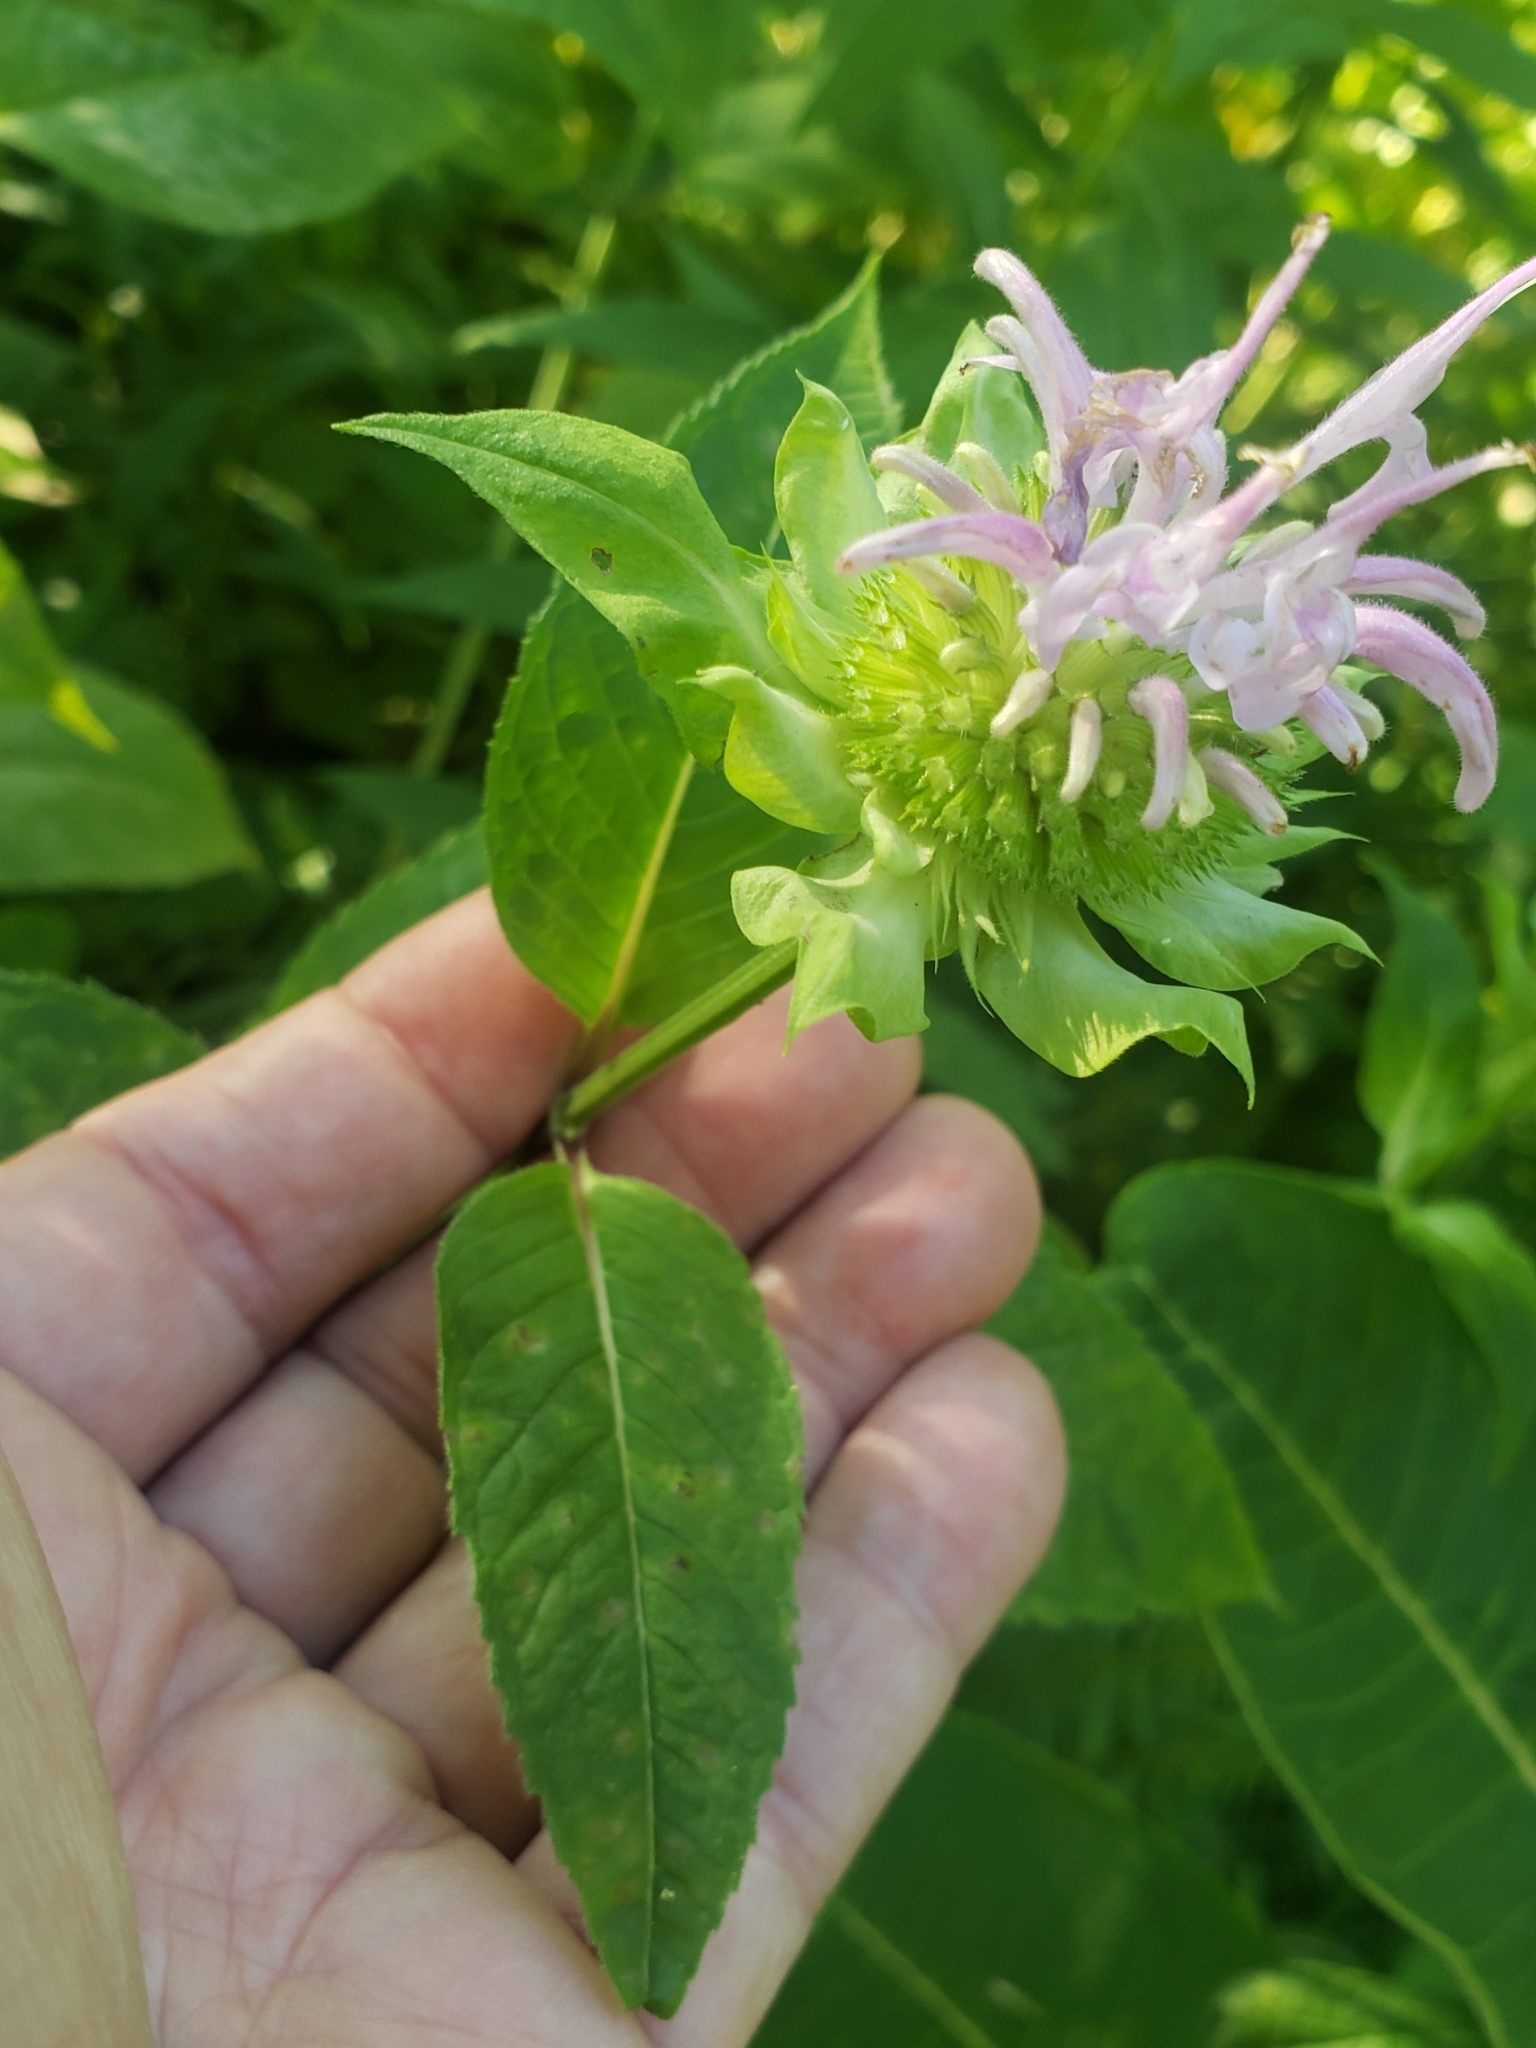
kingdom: Plantae
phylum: Tracheophyta
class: Magnoliopsida
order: Lamiales
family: Lamiaceae
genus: Monarda
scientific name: Monarda fistulosa
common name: Purple beebalm
